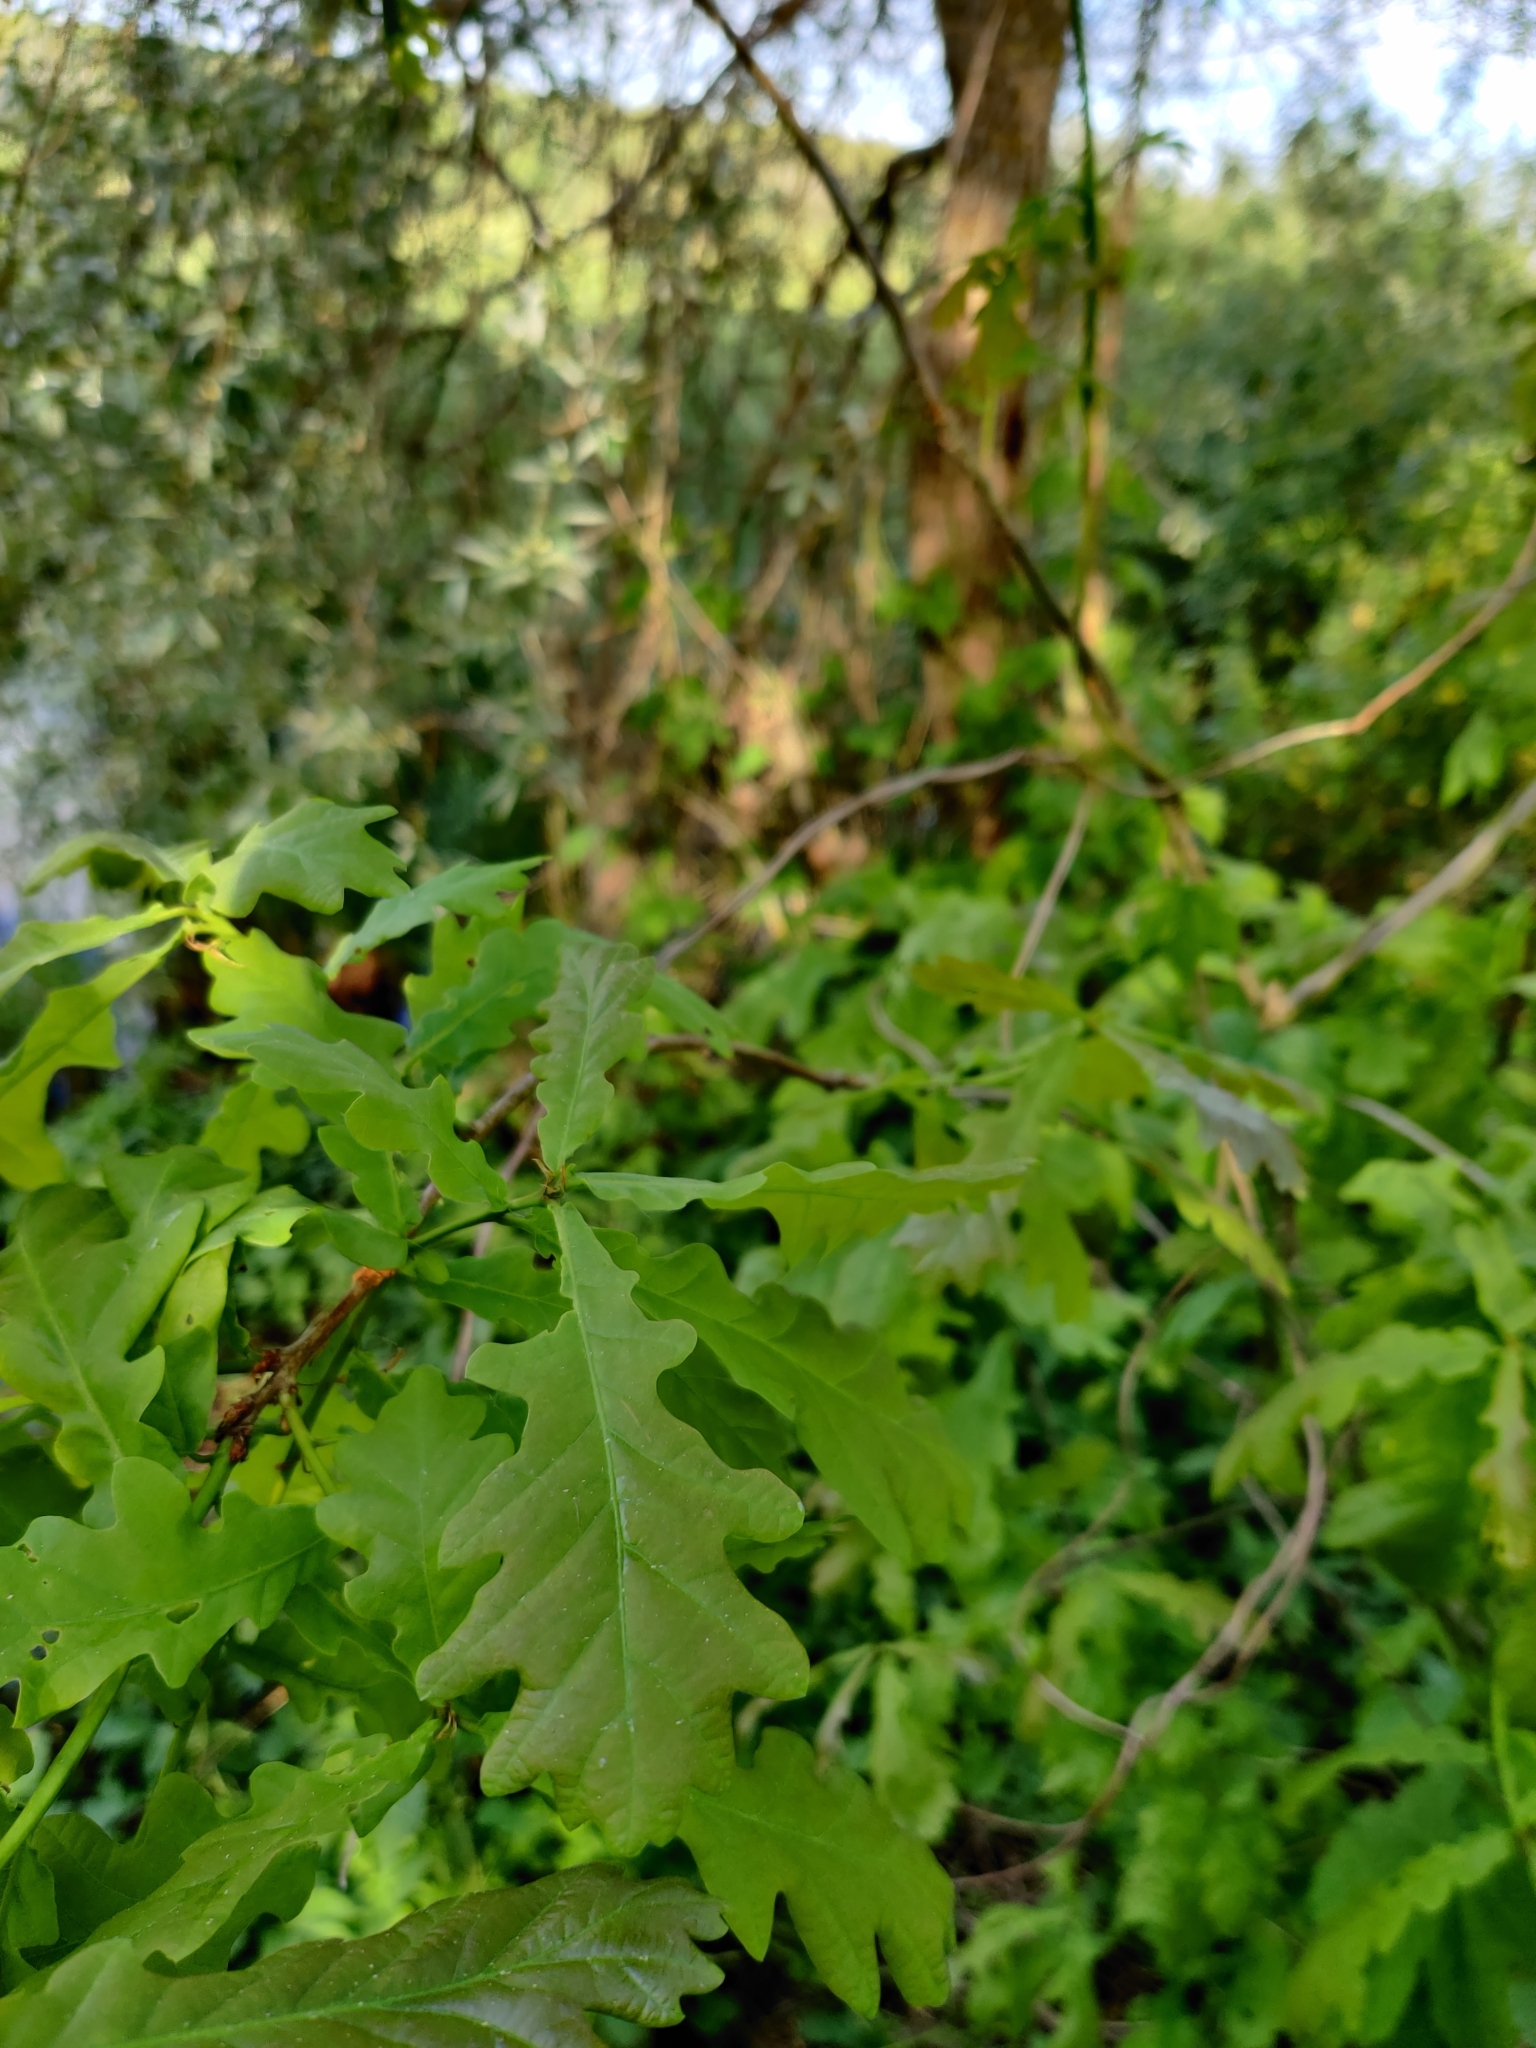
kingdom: Plantae
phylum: Tracheophyta
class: Magnoliopsida
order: Fagales
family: Fagaceae
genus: Quercus
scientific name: Quercus robur
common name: Pedunculate oak
